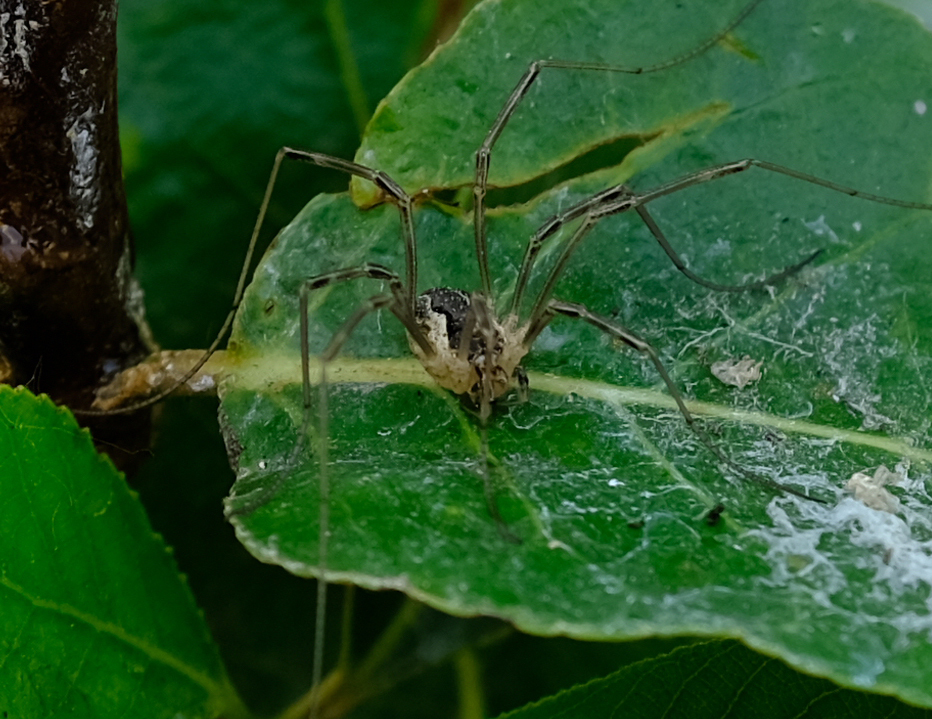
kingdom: Animalia
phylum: Arthropoda
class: Arachnida
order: Opiliones
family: Phalangiidae
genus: Mitopus
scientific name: Mitopus morio
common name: Saddleback harvestman
